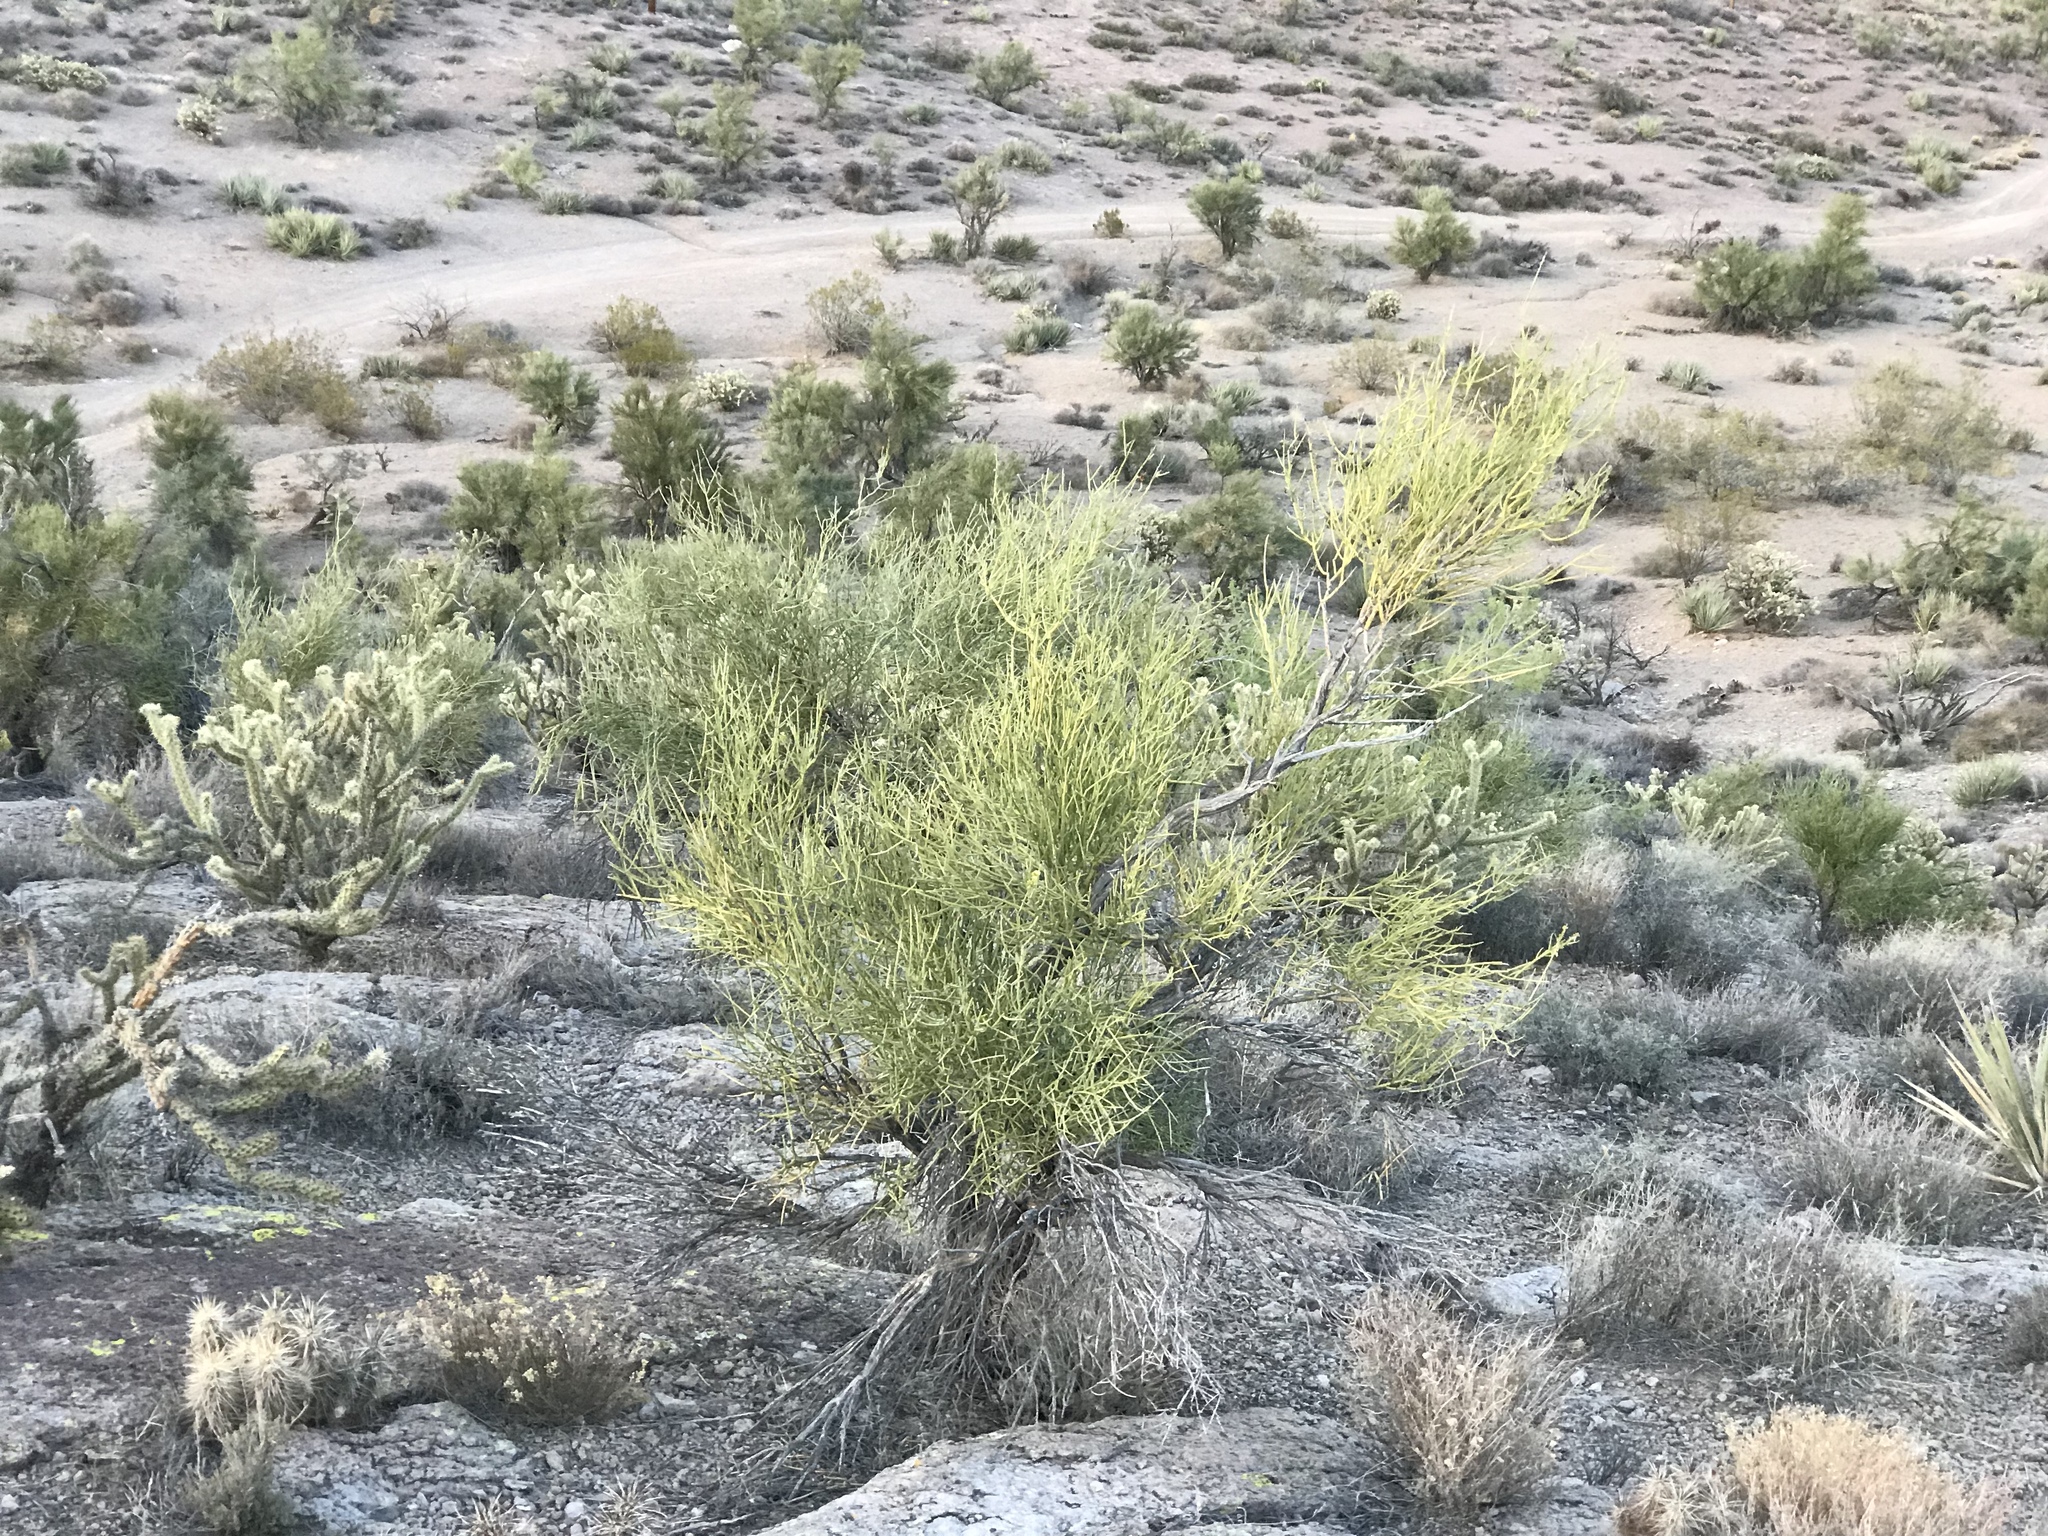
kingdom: Plantae
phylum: Tracheophyta
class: Magnoliopsida
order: Celastrales
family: Celastraceae
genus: Canotia
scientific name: Canotia holacantha
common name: Crucifixion thorns
